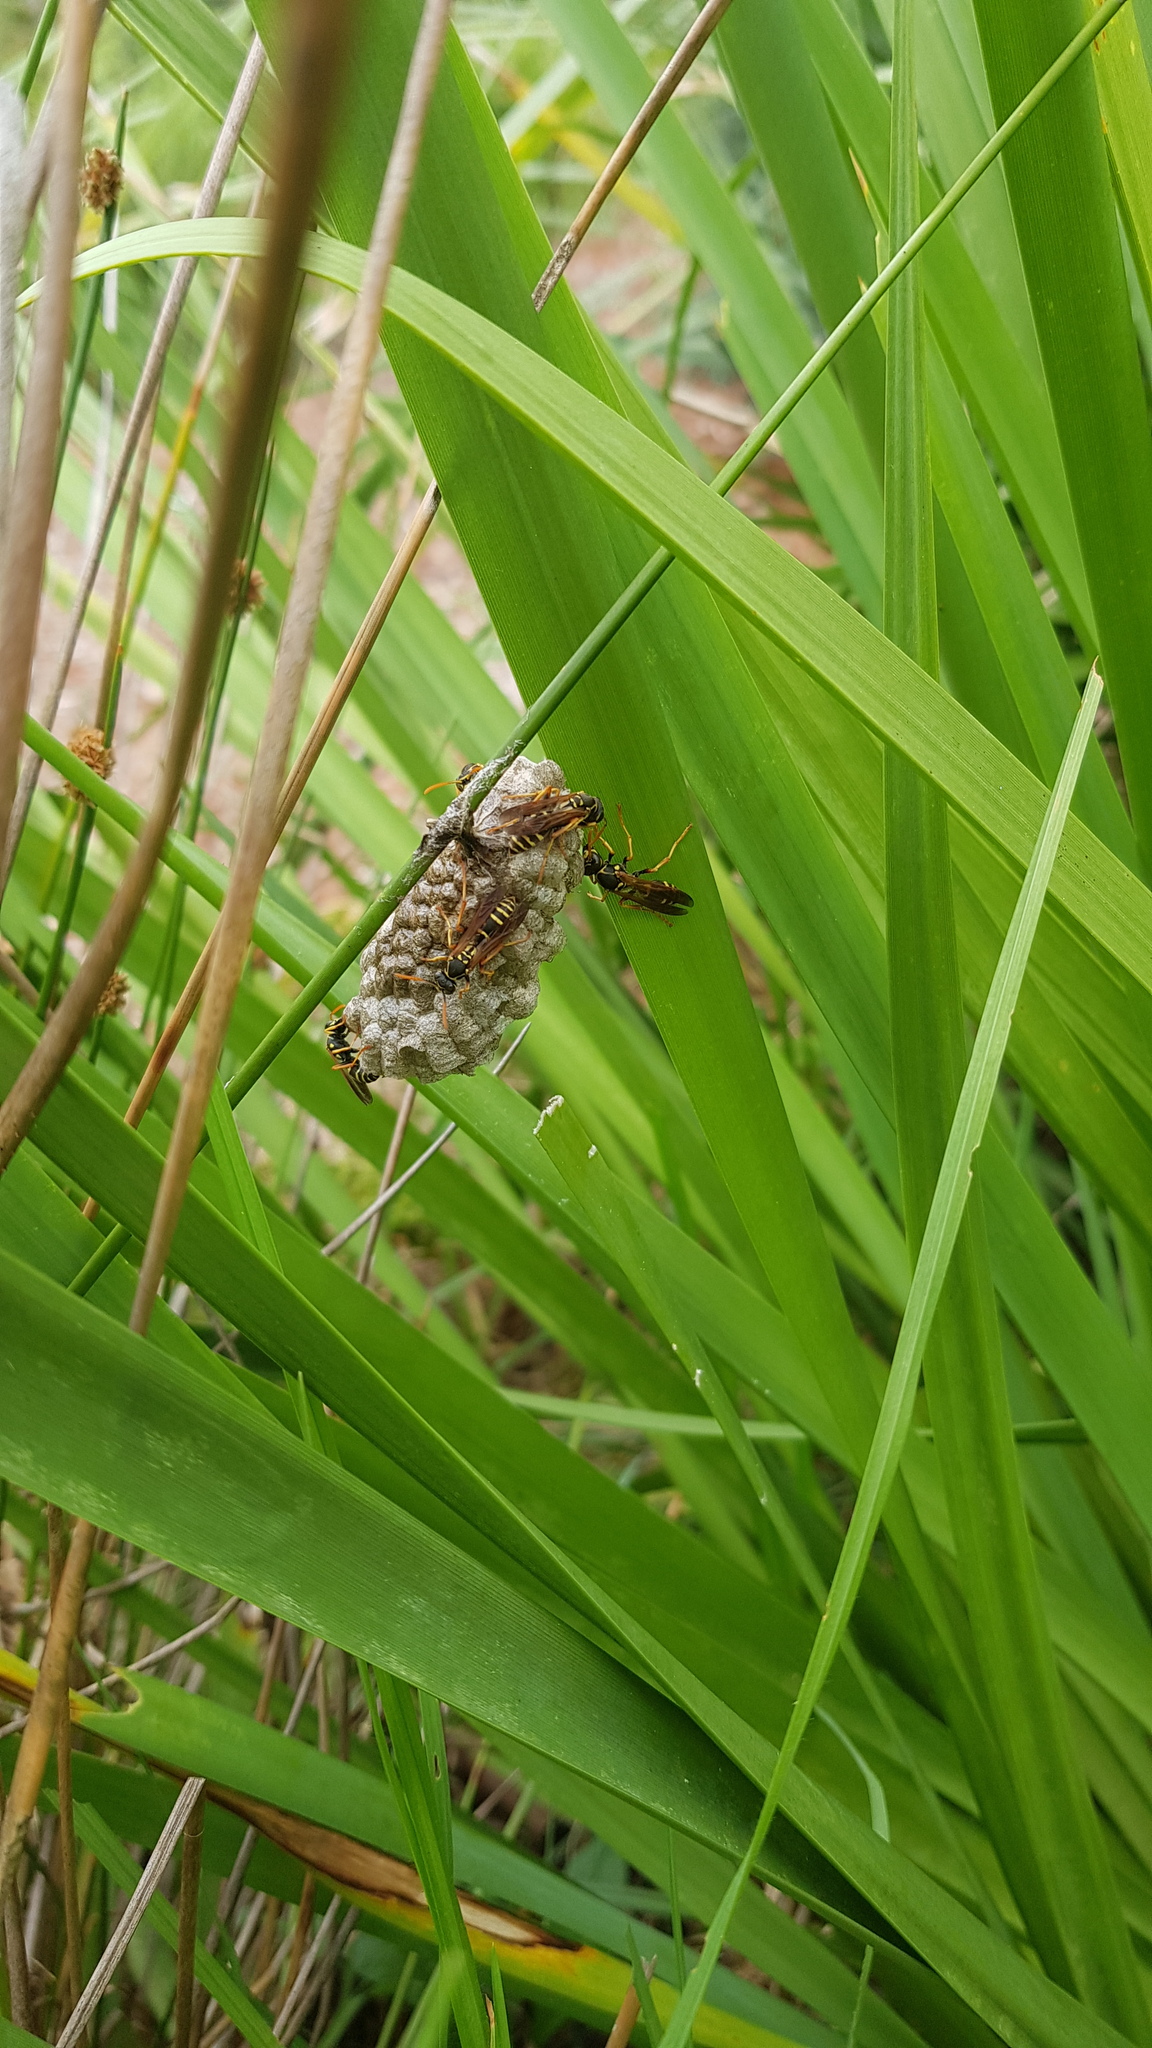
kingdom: Animalia
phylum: Arthropoda
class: Insecta
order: Hymenoptera
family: Eumenidae
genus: Polistes
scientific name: Polistes chinensis
